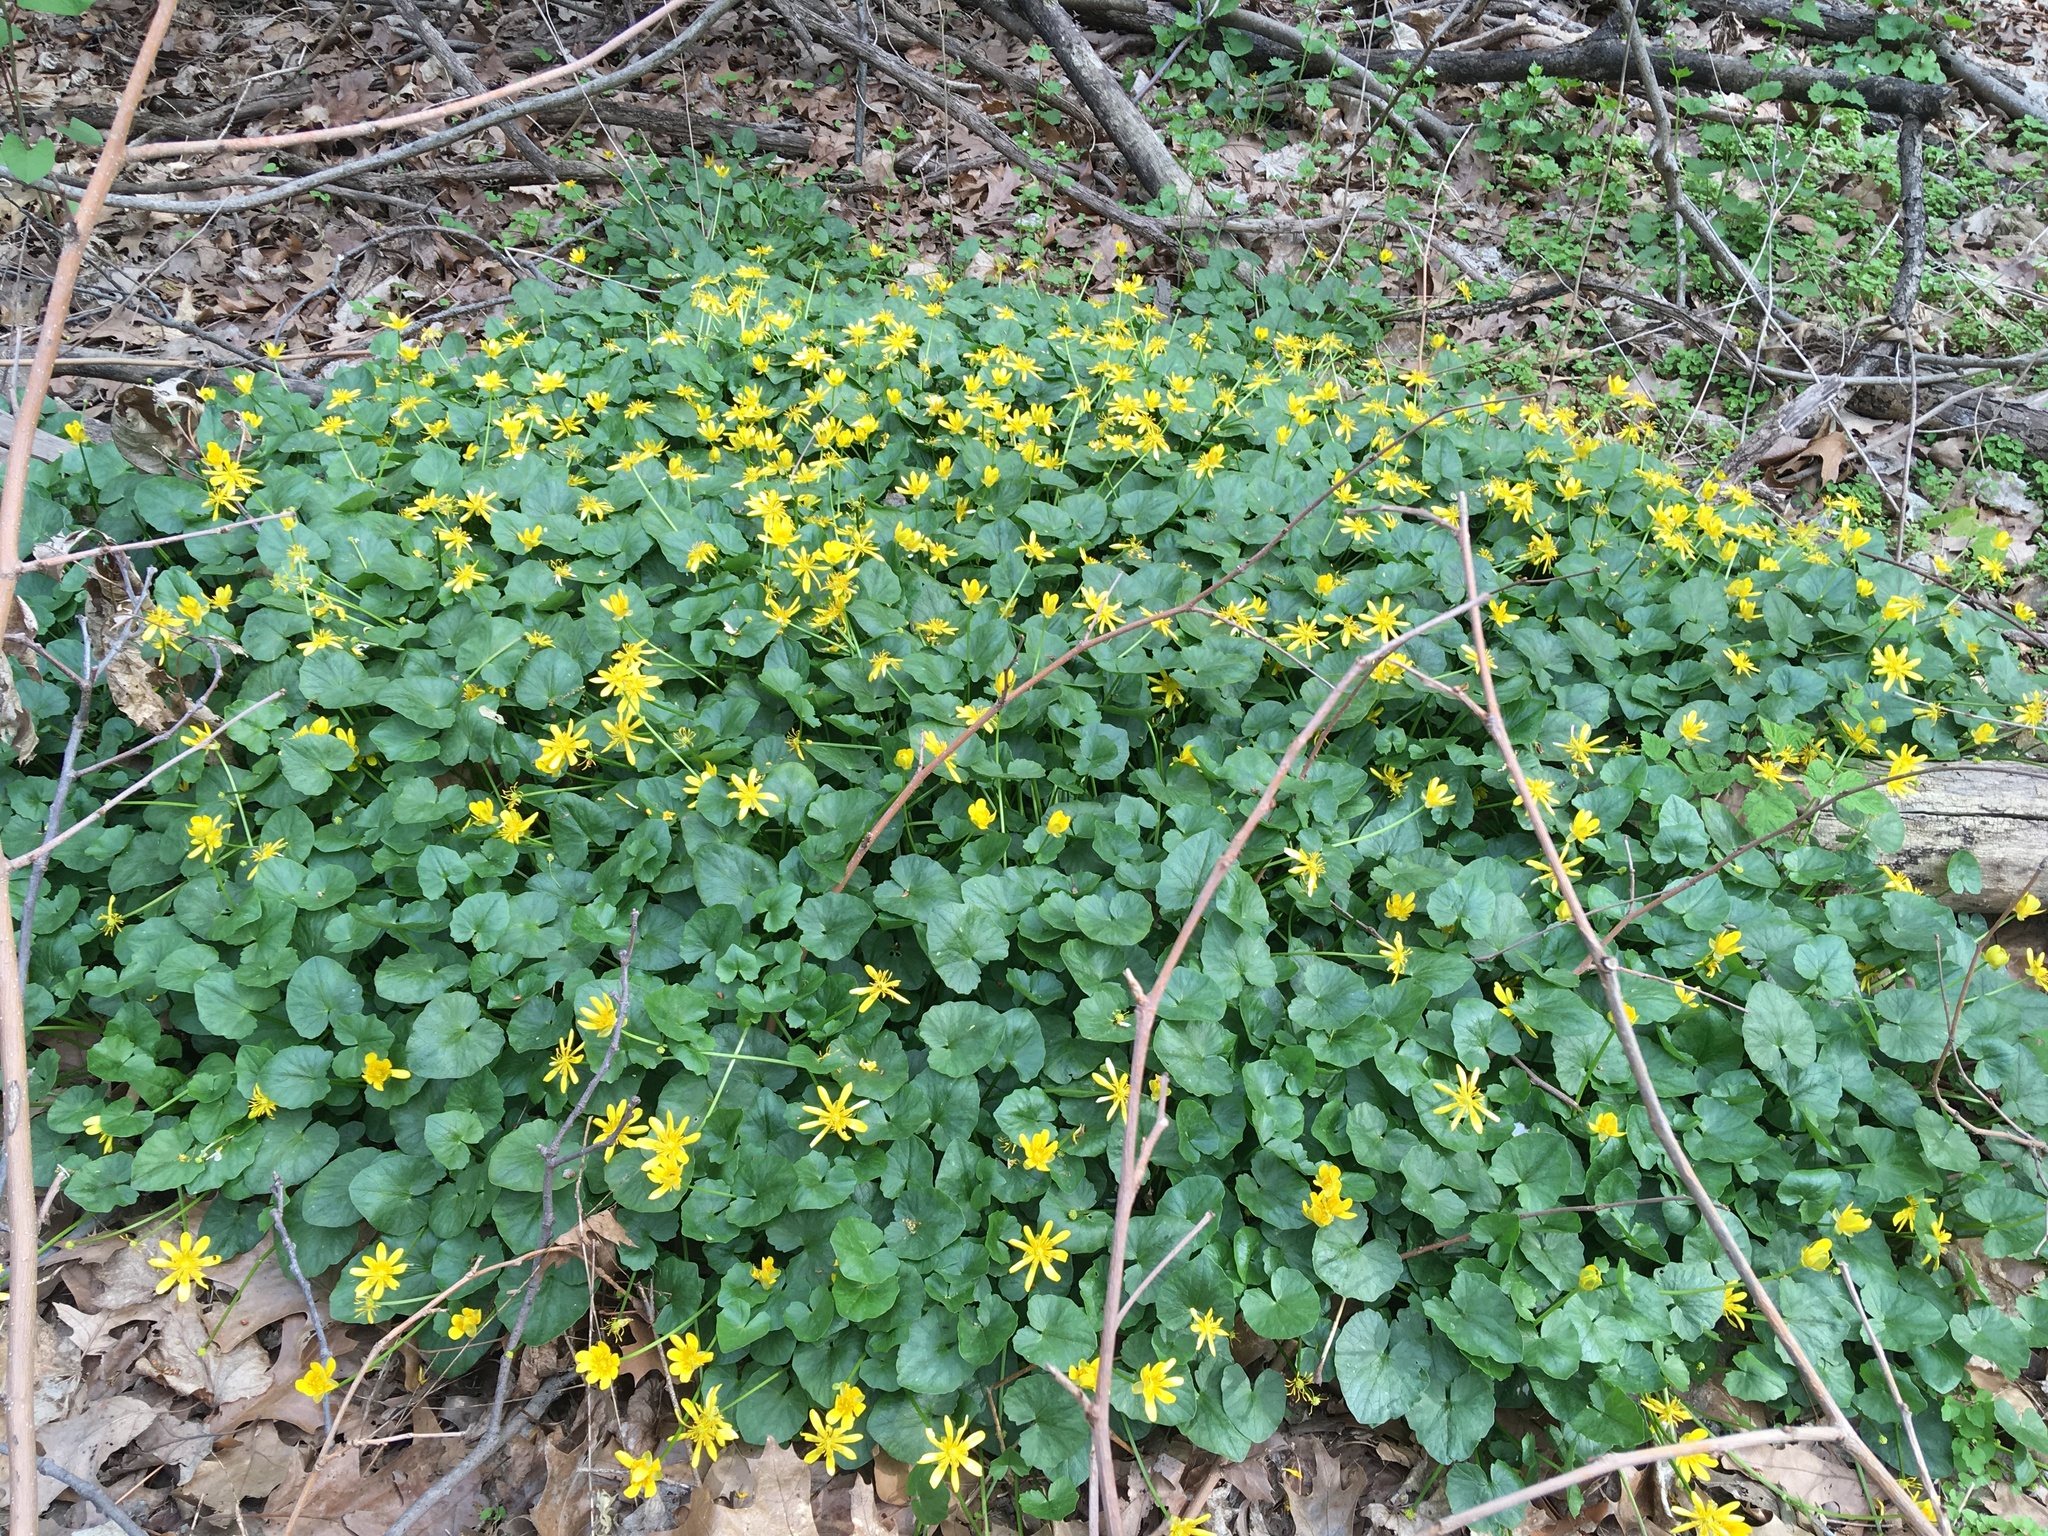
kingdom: Plantae
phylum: Tracheophyta
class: Magnoliopsida
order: Ranunculales
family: Ranunculaceae
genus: Ficaria
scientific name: Ficaria verna
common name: Lesser celandine
